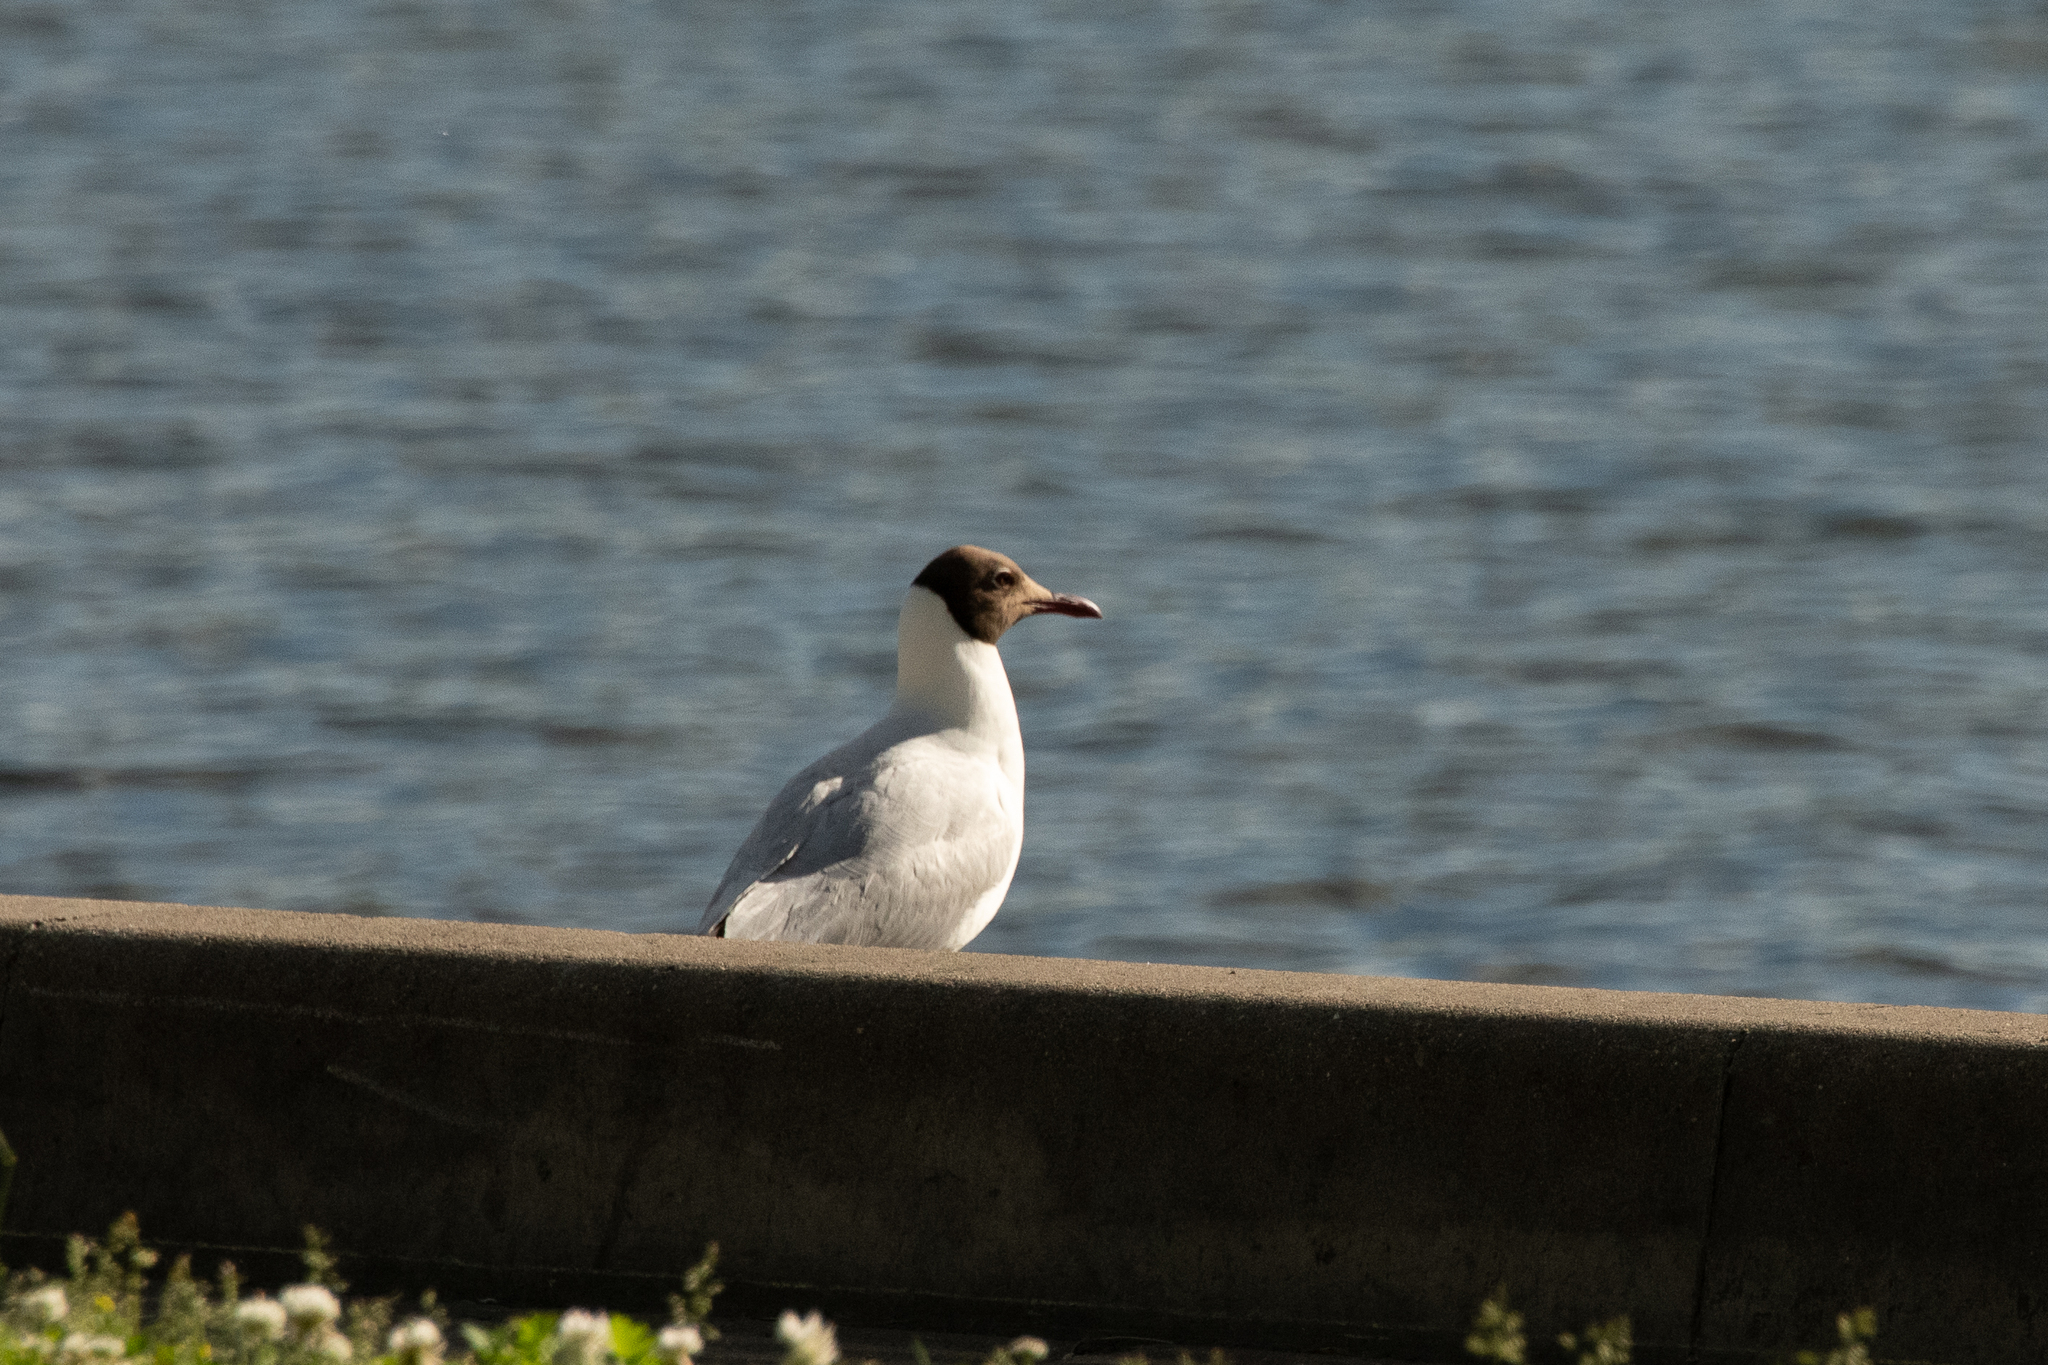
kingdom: Animalia
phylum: Chordata
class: Aves
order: Charadriiformes
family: Laridae
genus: Chroicocephalus
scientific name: Chroicocephalus ridibundus
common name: Black-headed gull
